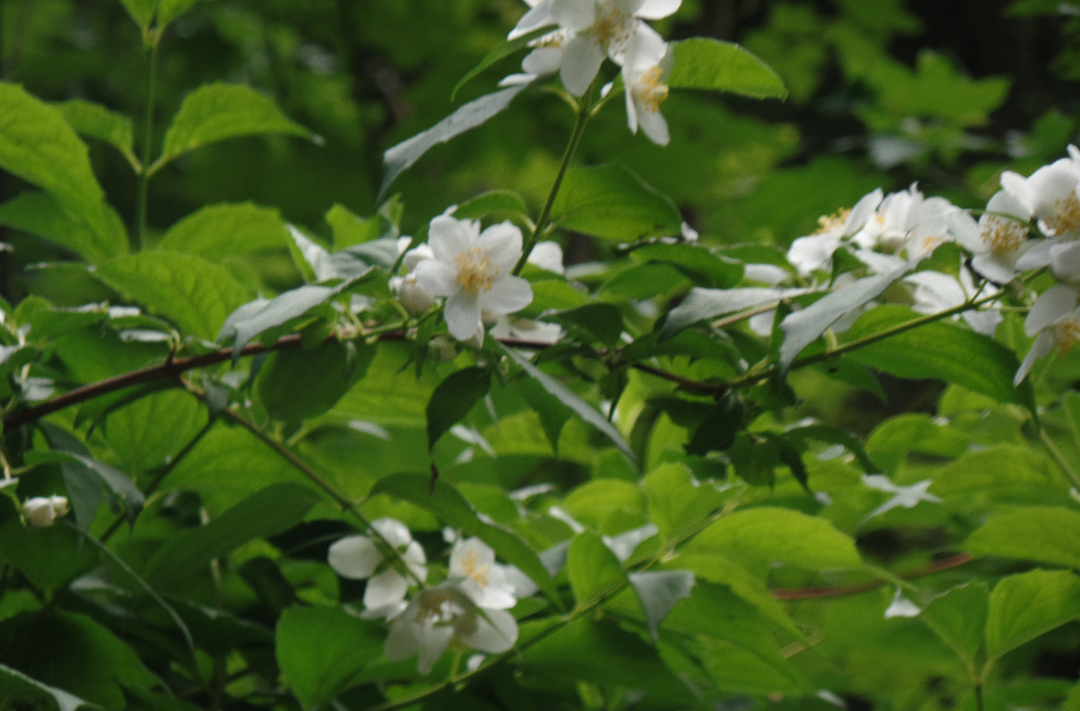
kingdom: Plantae
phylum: Tracheophyta
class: Magnoliopsida
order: Cornales
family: Hydrangeaceae
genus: Philadelphus
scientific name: Philadelphus coronarius
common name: Mock orange
